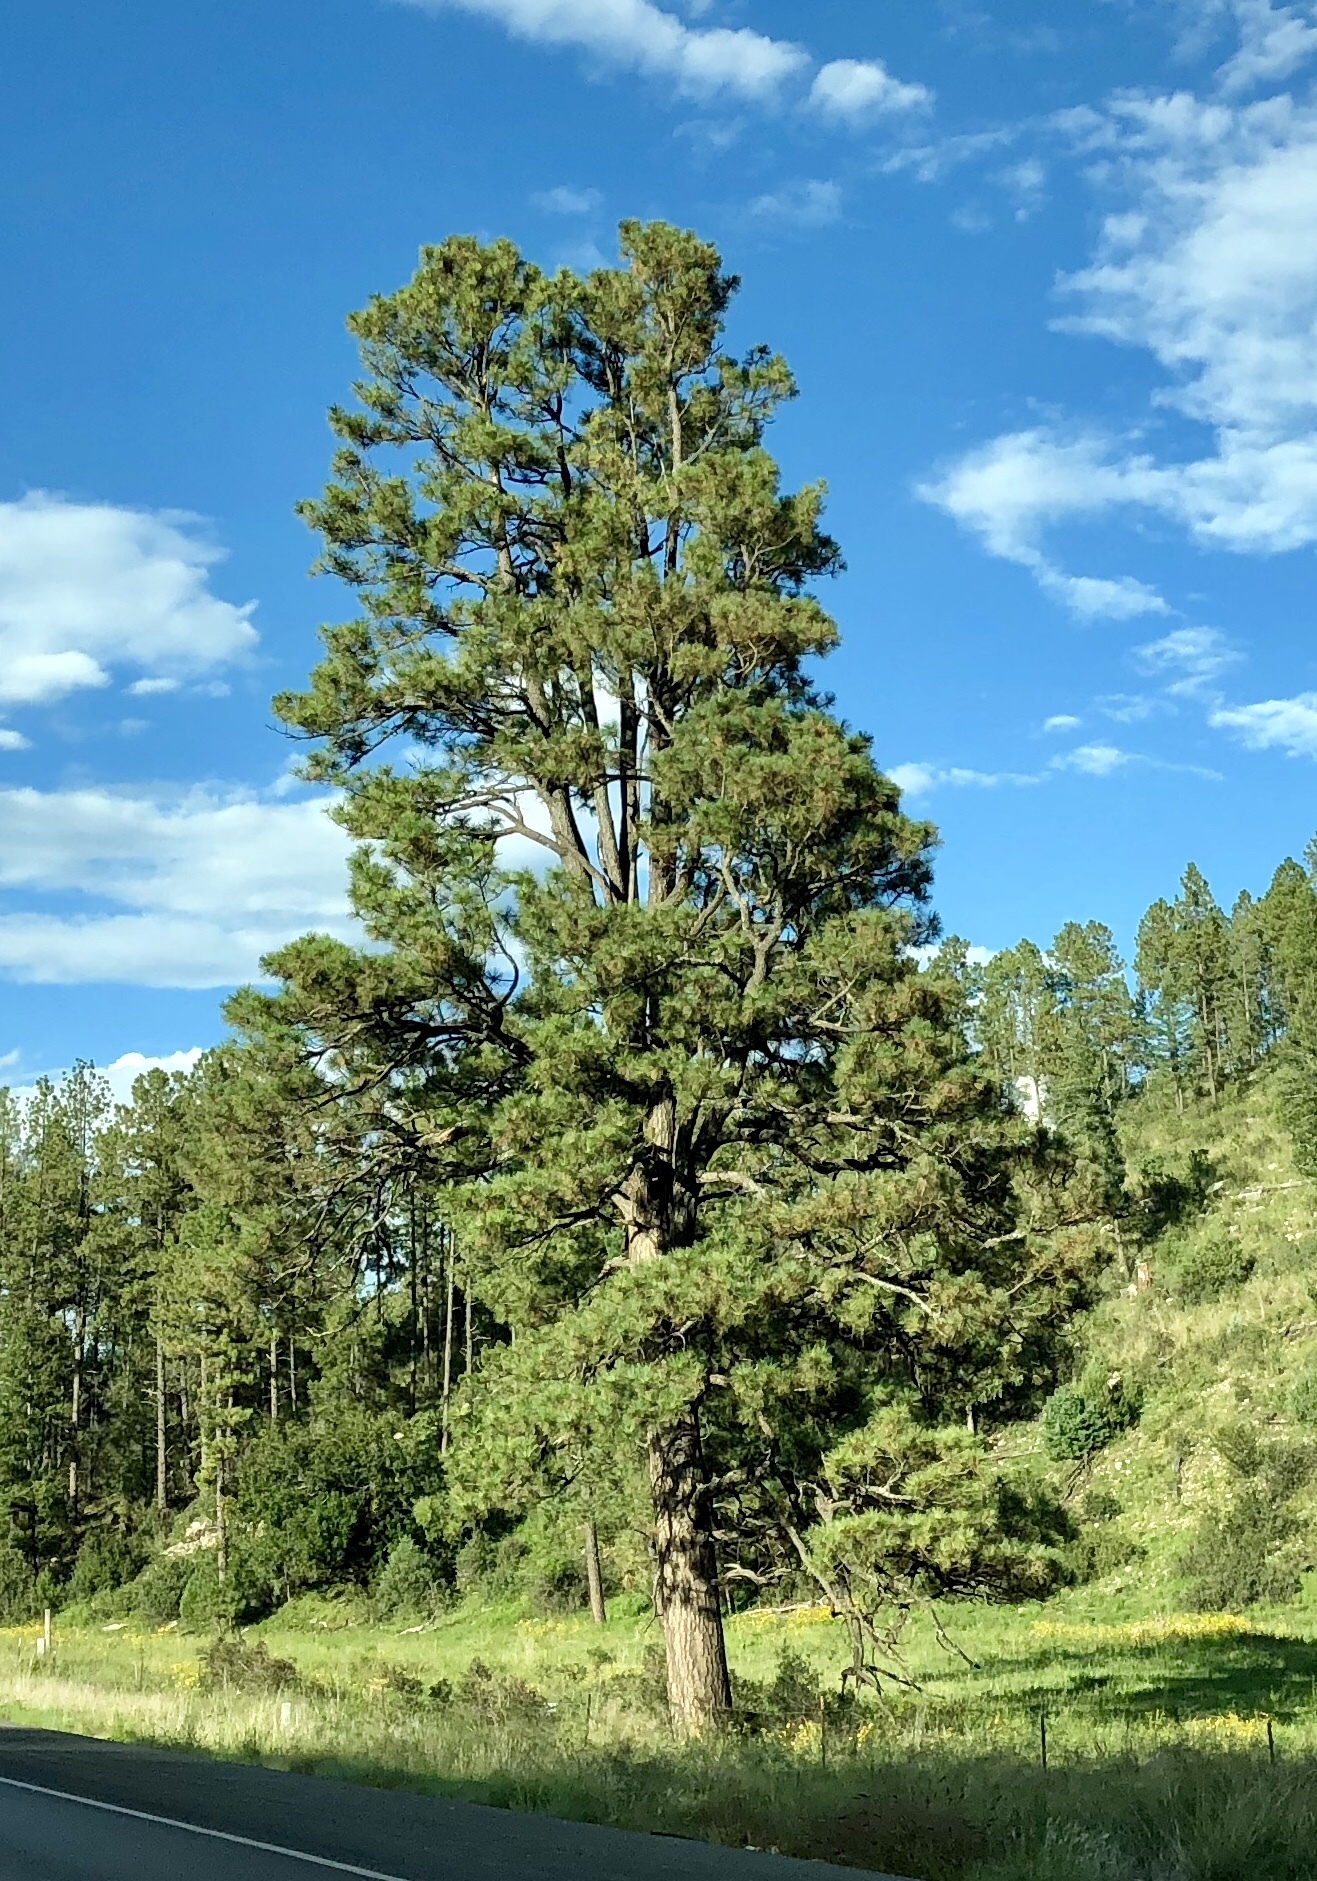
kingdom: Plantae
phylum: Tracheophyta
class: Pinopsida
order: Pinales
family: Pinaceae
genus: Pinus
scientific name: Pinus ponderosa
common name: Western yellow-pine
